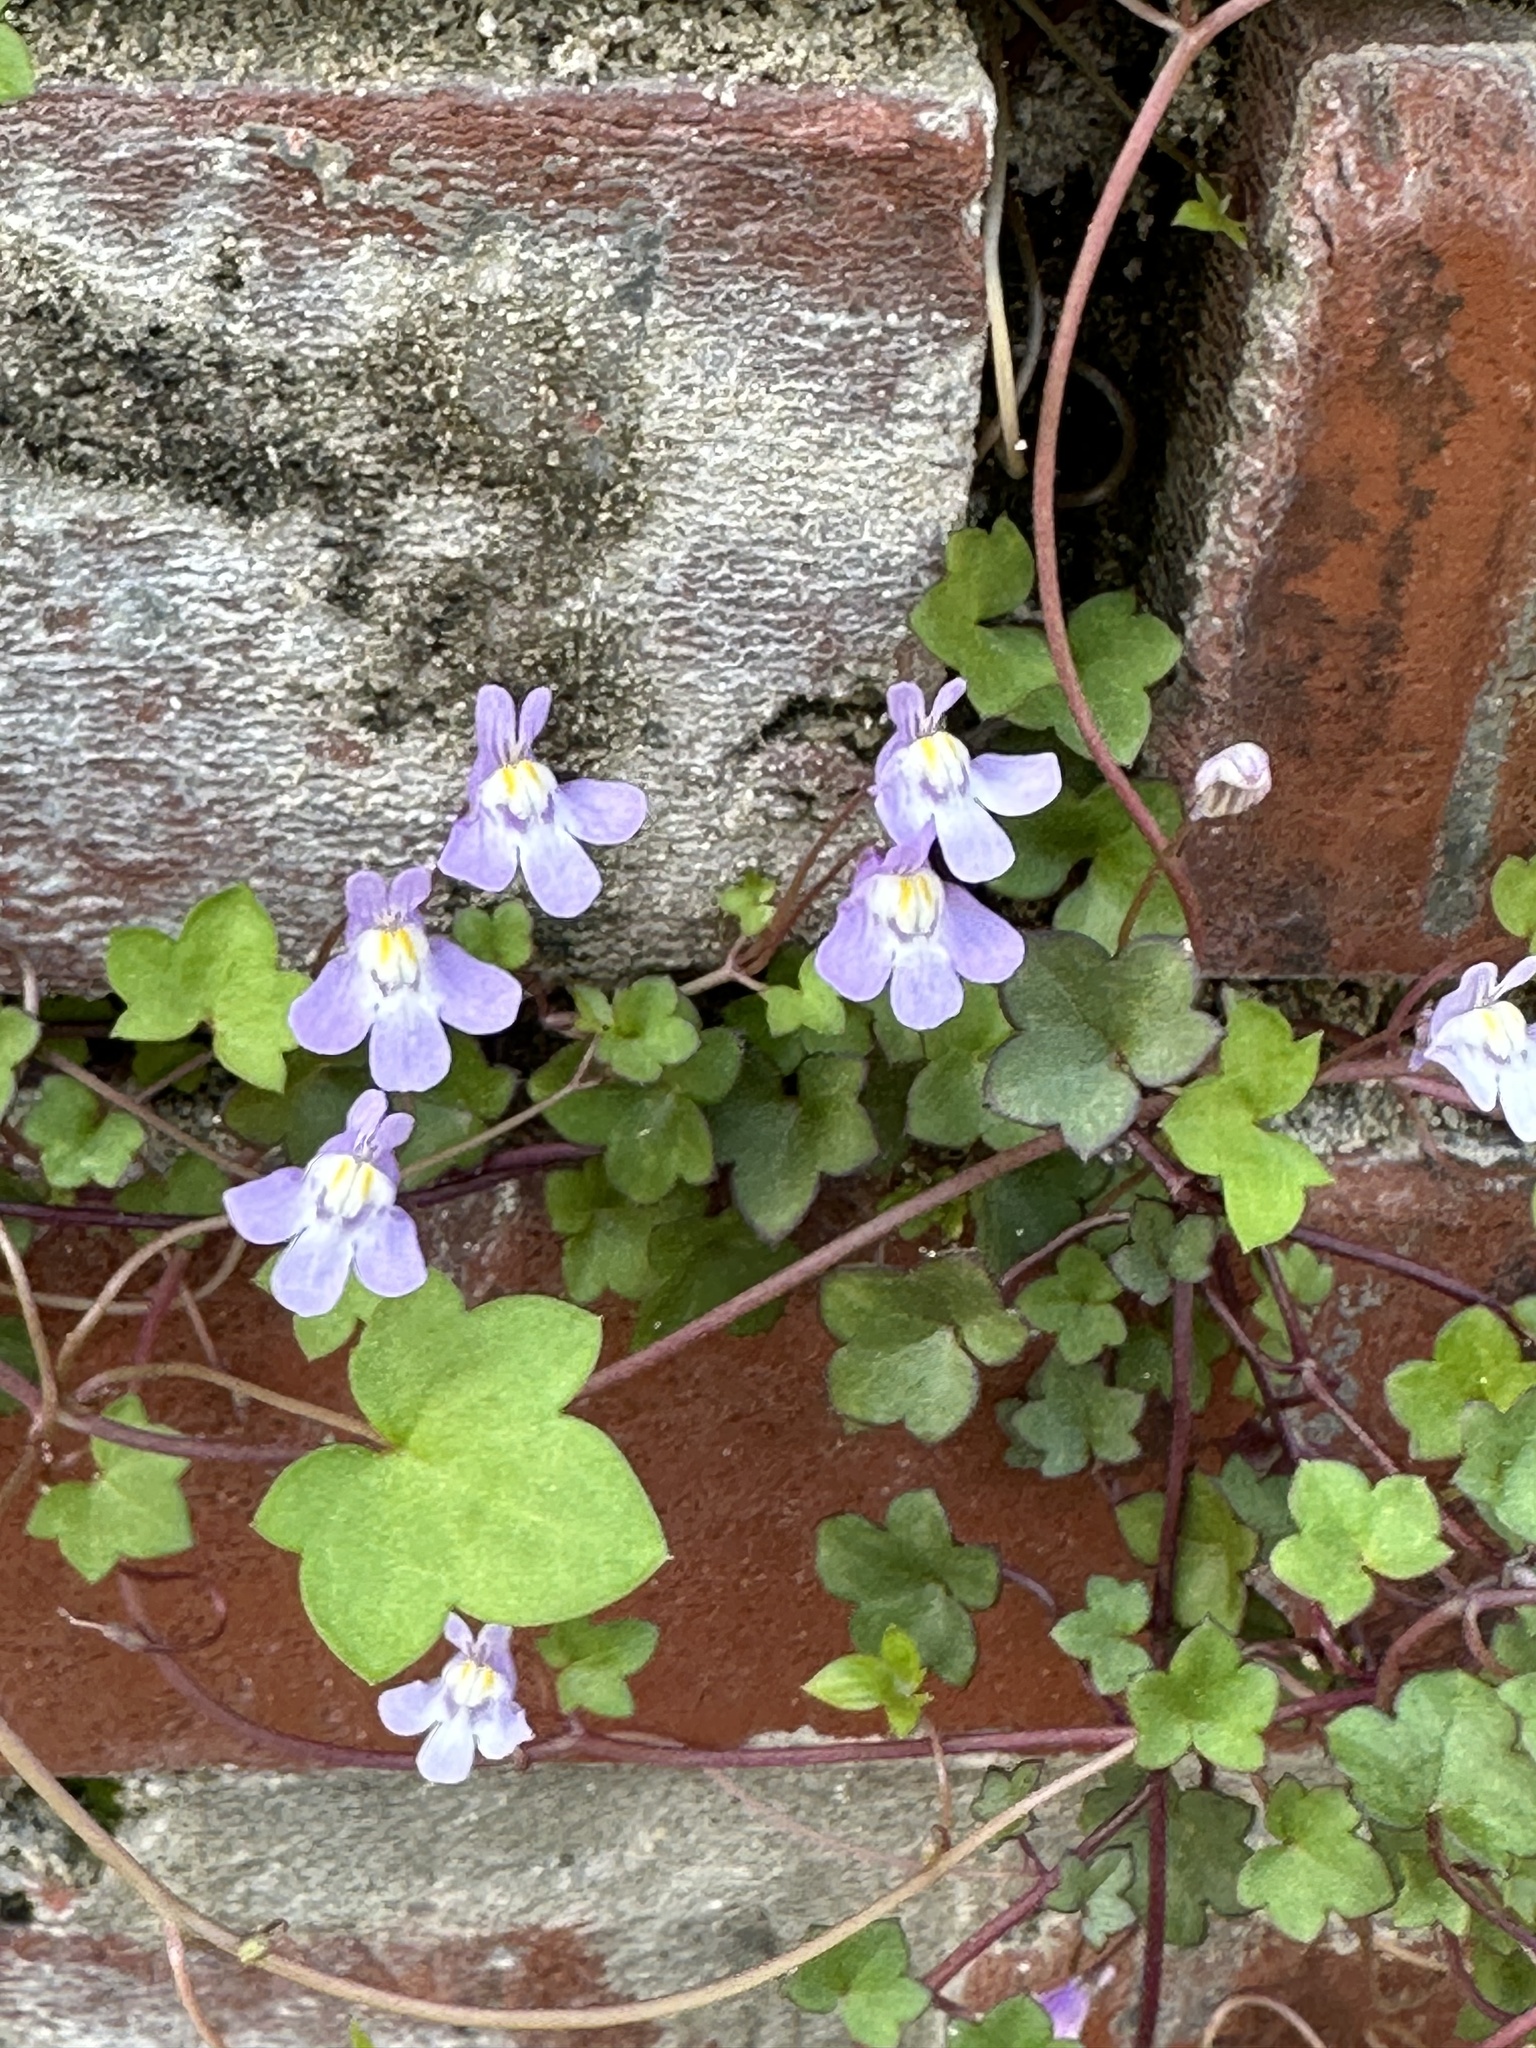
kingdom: Plantae
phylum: Tracheophyta
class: Magnoliopsida
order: Lamiales
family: Plantaginaceae
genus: Cymbalaria
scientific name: Cymbalaria muralis
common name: Ivy-leaved toadflax
